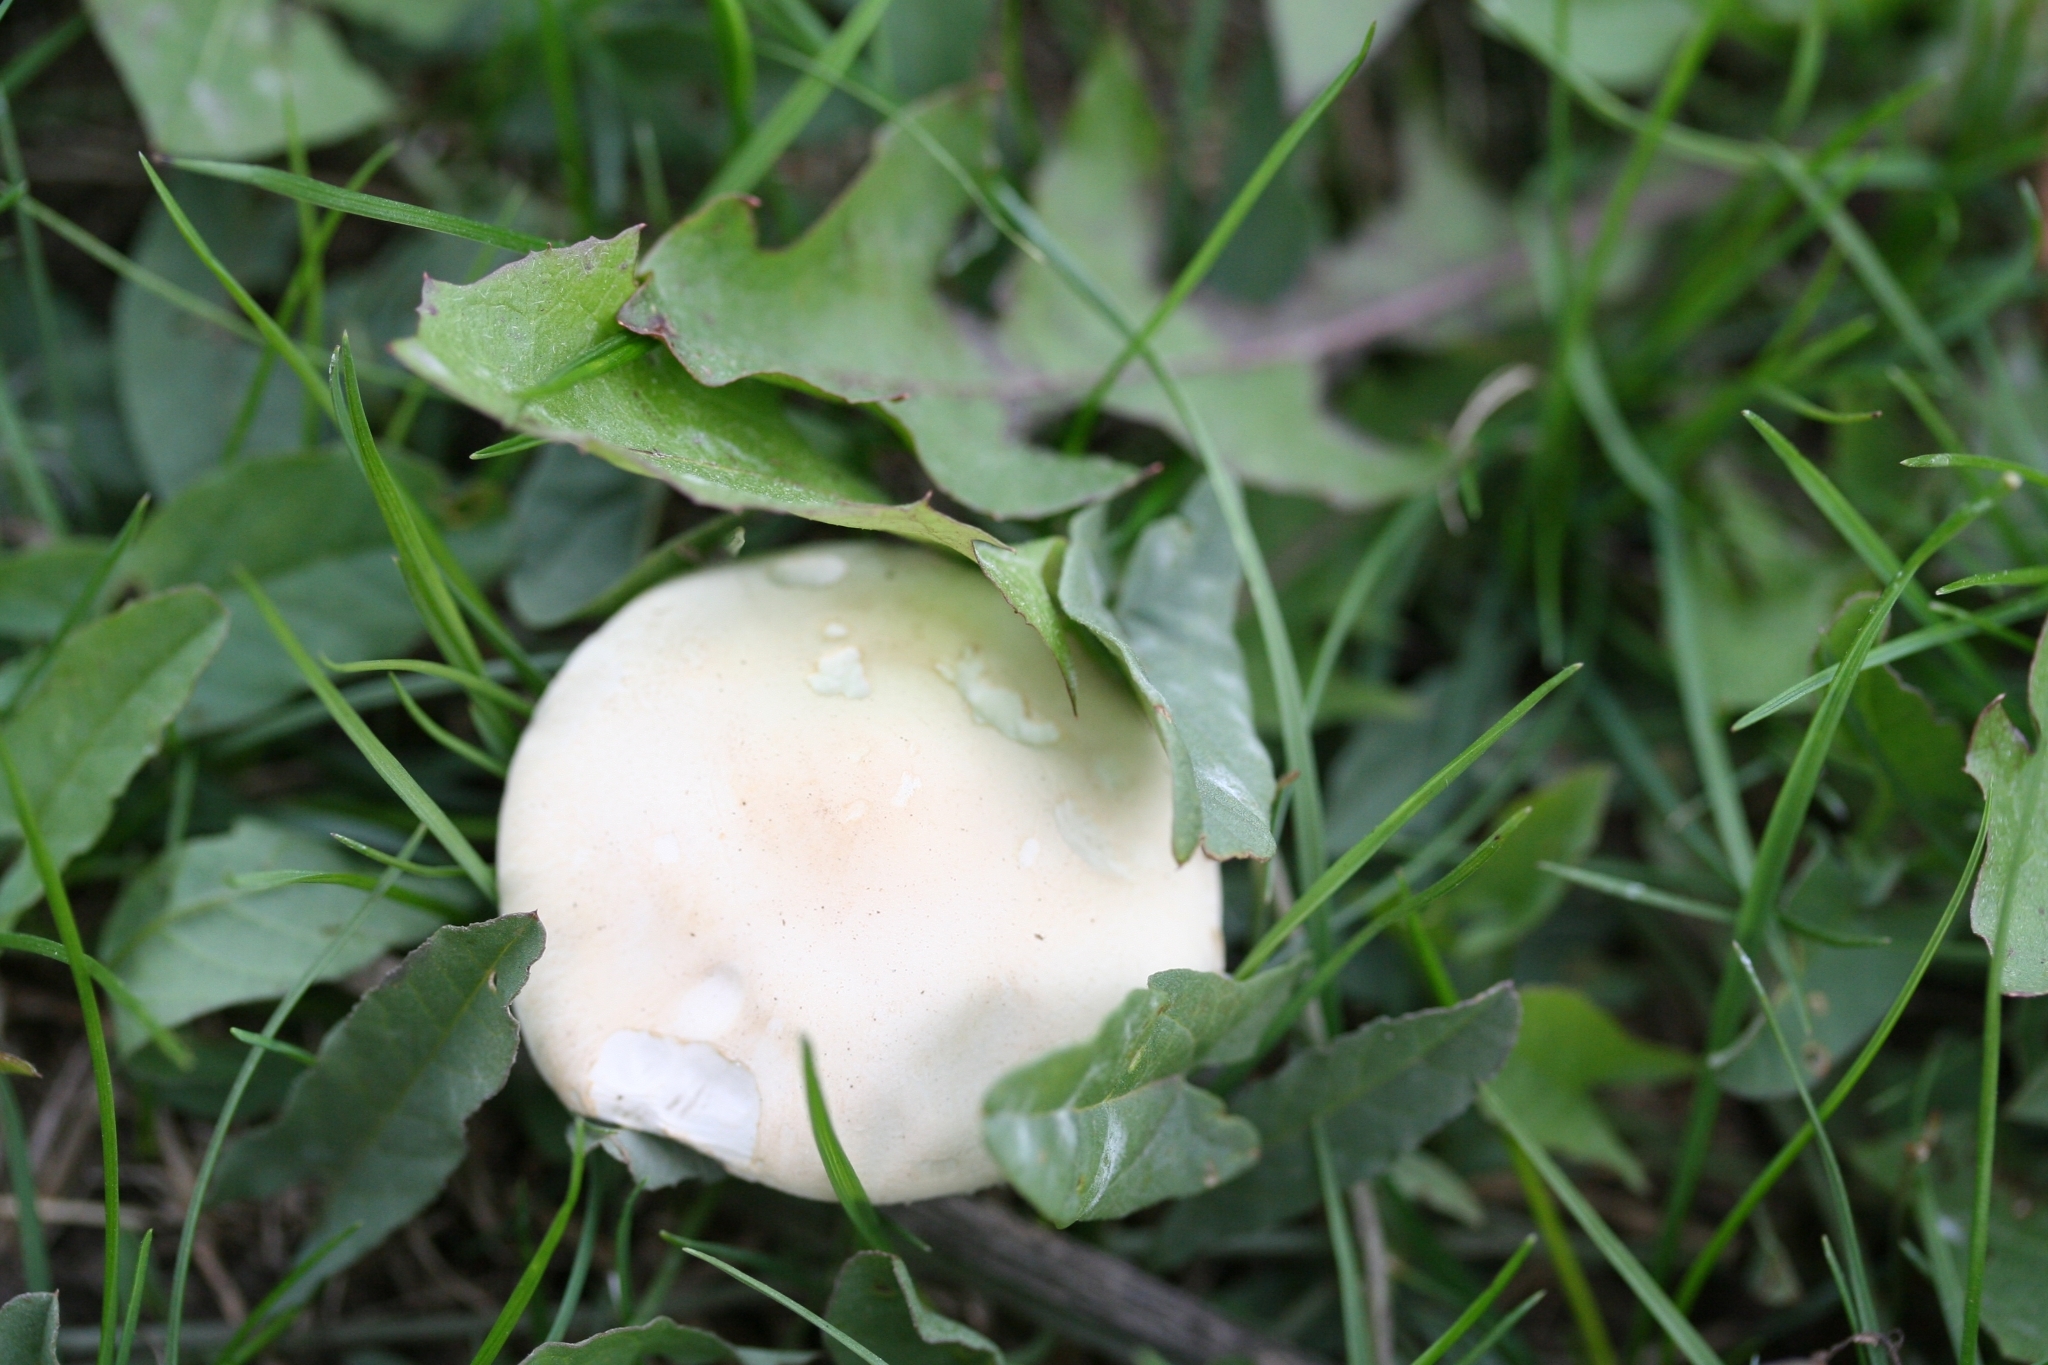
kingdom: Fungi
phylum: Basidiomycota
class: Agaricomycetes
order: Agaricales
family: Agaricaceae
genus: Leucoagaricus
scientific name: Leucoagaricus leucothites
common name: White dapperling
